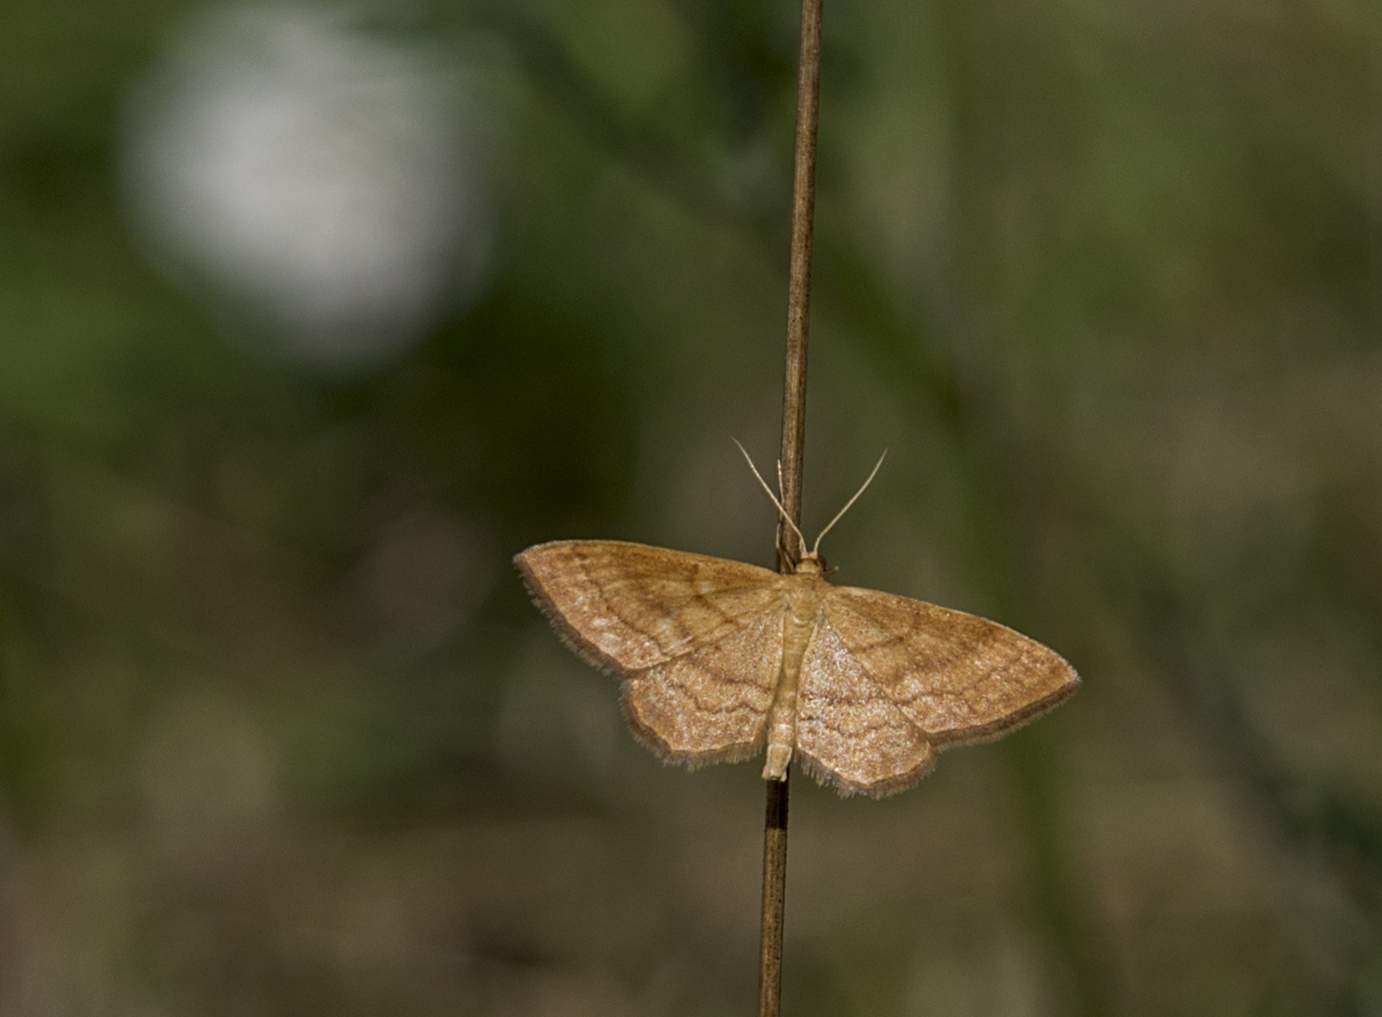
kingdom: Animalia
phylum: Arthropoda
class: Insecta
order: Lepidoptera
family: Geometridae
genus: Idaea
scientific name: Idaea ochrata
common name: Bright wave
